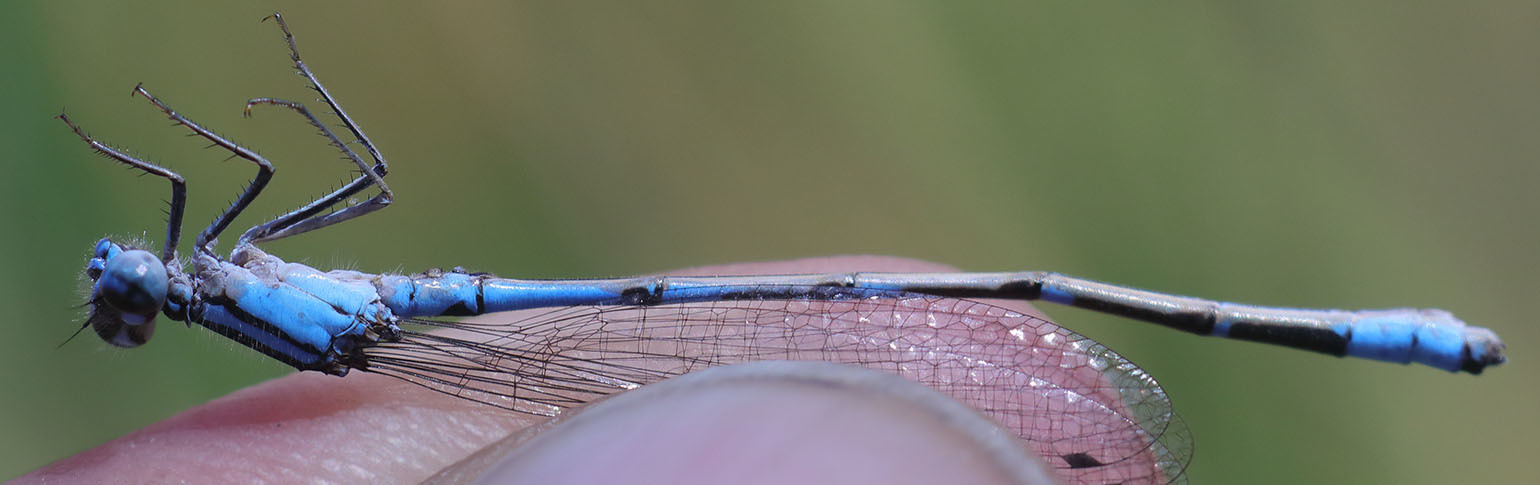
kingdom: Animalia
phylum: Arthropoda
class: Insecta
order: Odonata
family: Coenagrionidae
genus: Enallagma
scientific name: Enallagma praevarum
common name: Arroyo bluet
